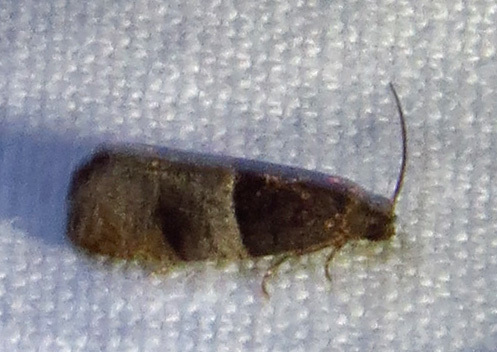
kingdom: Animalia
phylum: Arthropoda
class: Insecta
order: Lepidoptera
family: Tortricidae
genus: Larisa
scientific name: Larisa subsolana
